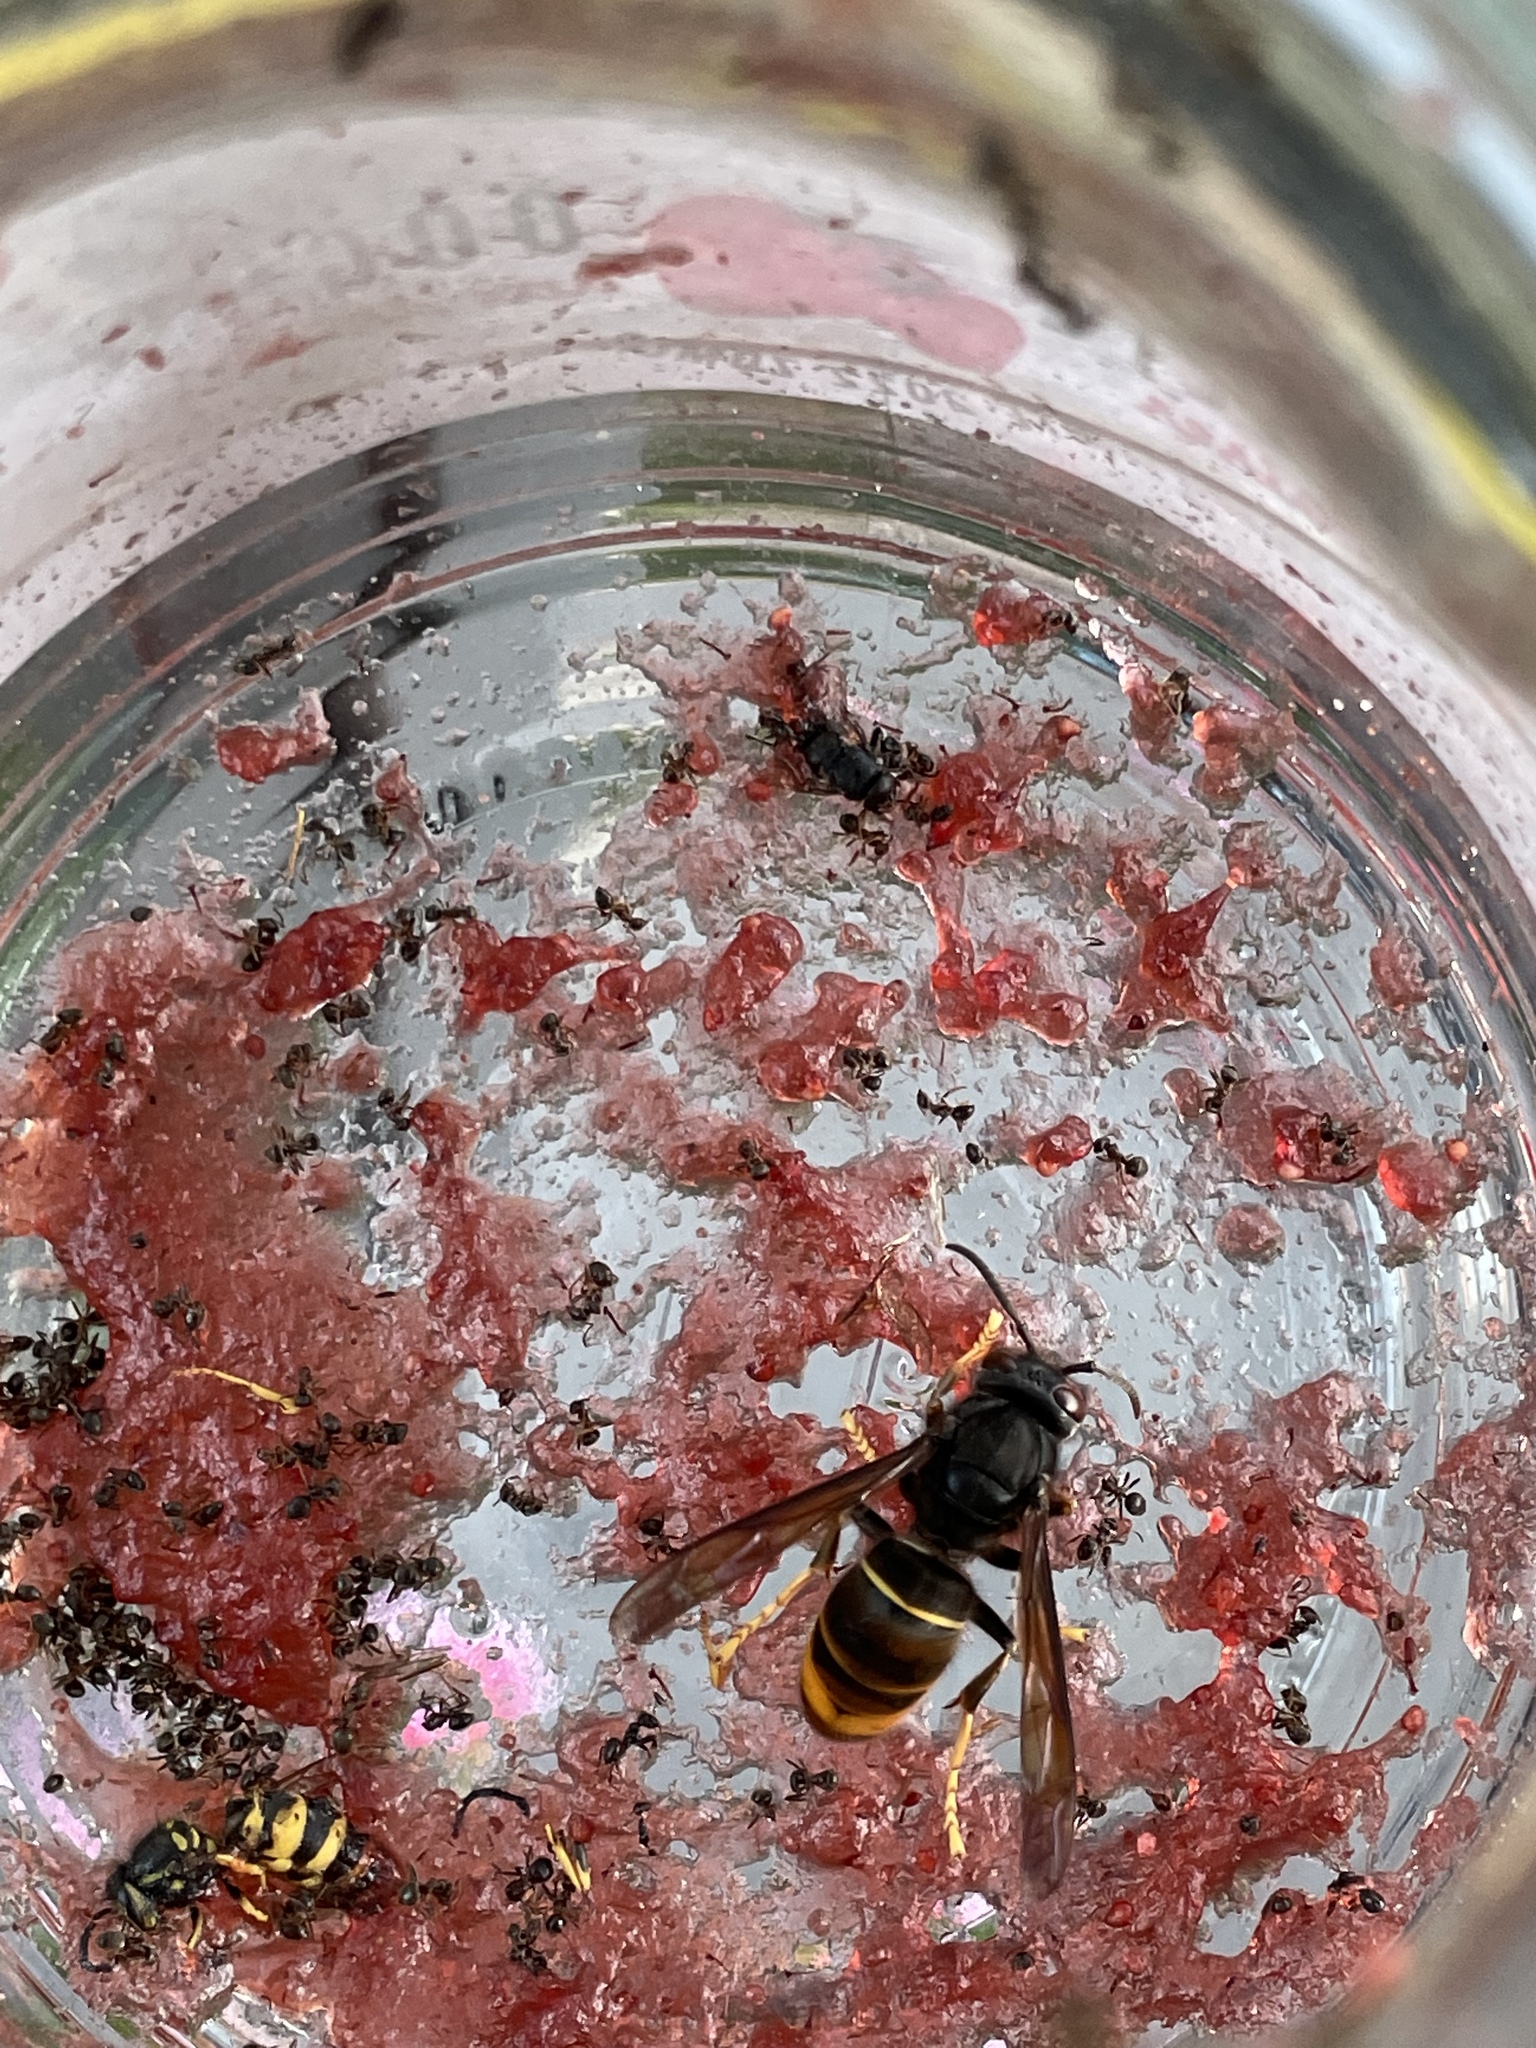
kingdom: Animalia
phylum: Arthropoda
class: Insecta
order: Hymenoptera
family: Vespidae
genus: Vespa
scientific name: Vespa velutina
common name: Asian hornet
